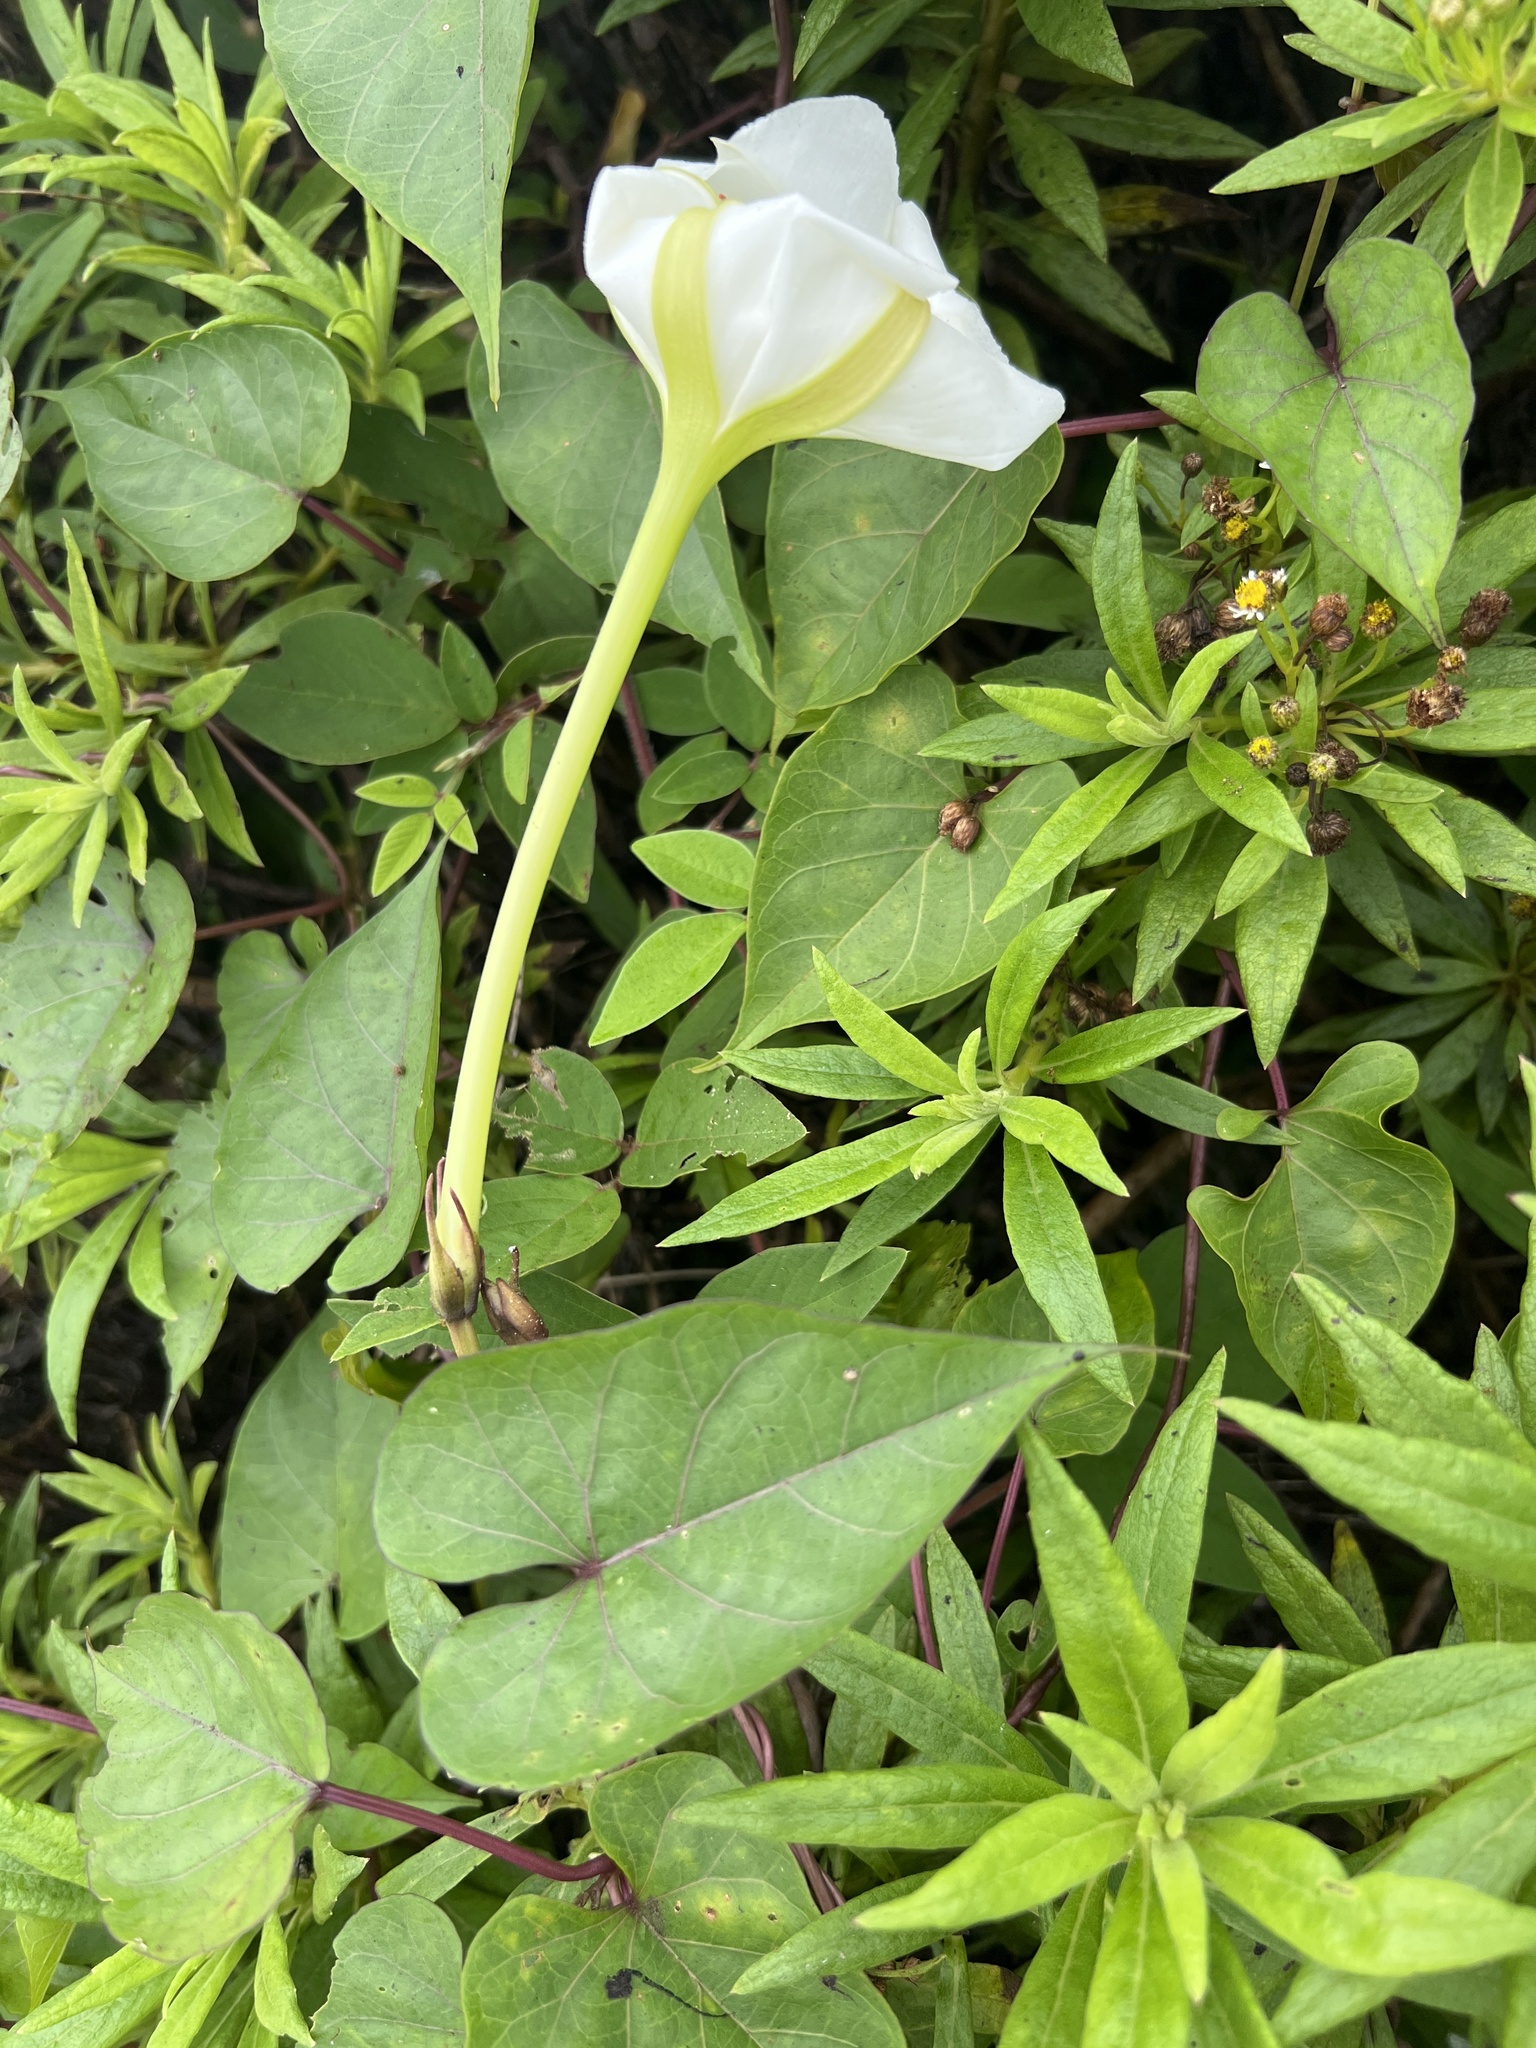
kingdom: Plantae
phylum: Tracheophyta
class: Magnoliopsida
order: Solanales
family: Convolvulaceae
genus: Ipomoea
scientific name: Ipomoea alba
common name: Moonflower
